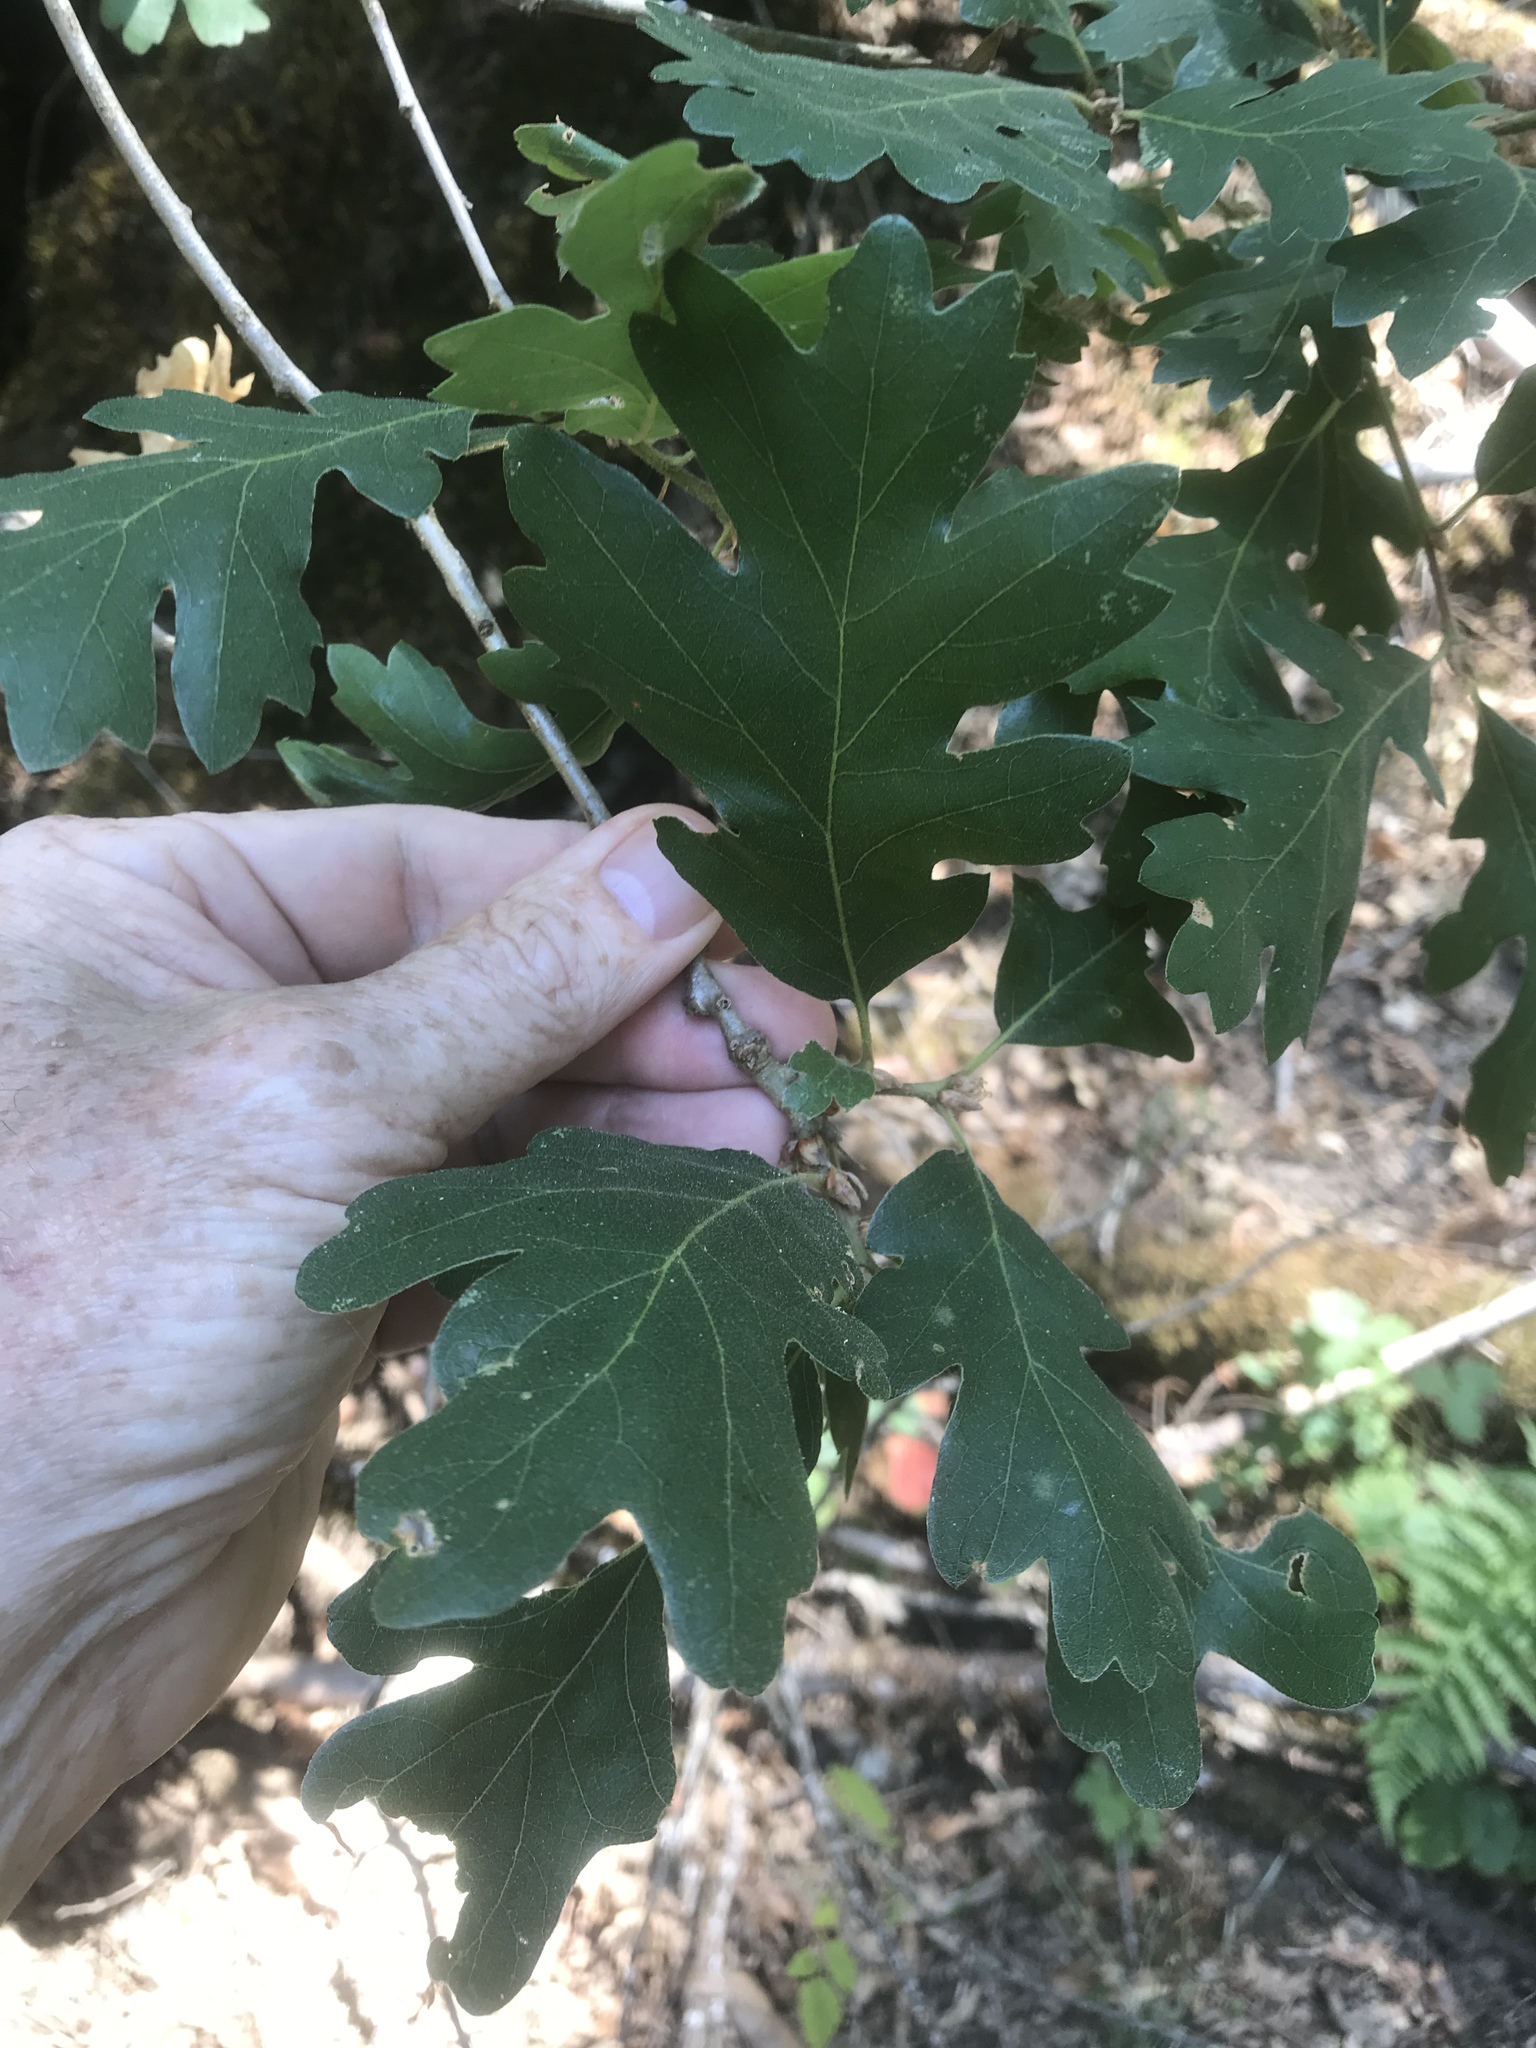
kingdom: Plantae
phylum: Tracheophyta
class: Magnoliopsida
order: Fagales
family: Fagaceae
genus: Quercus
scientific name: Quercus garryana
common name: Garry oak
